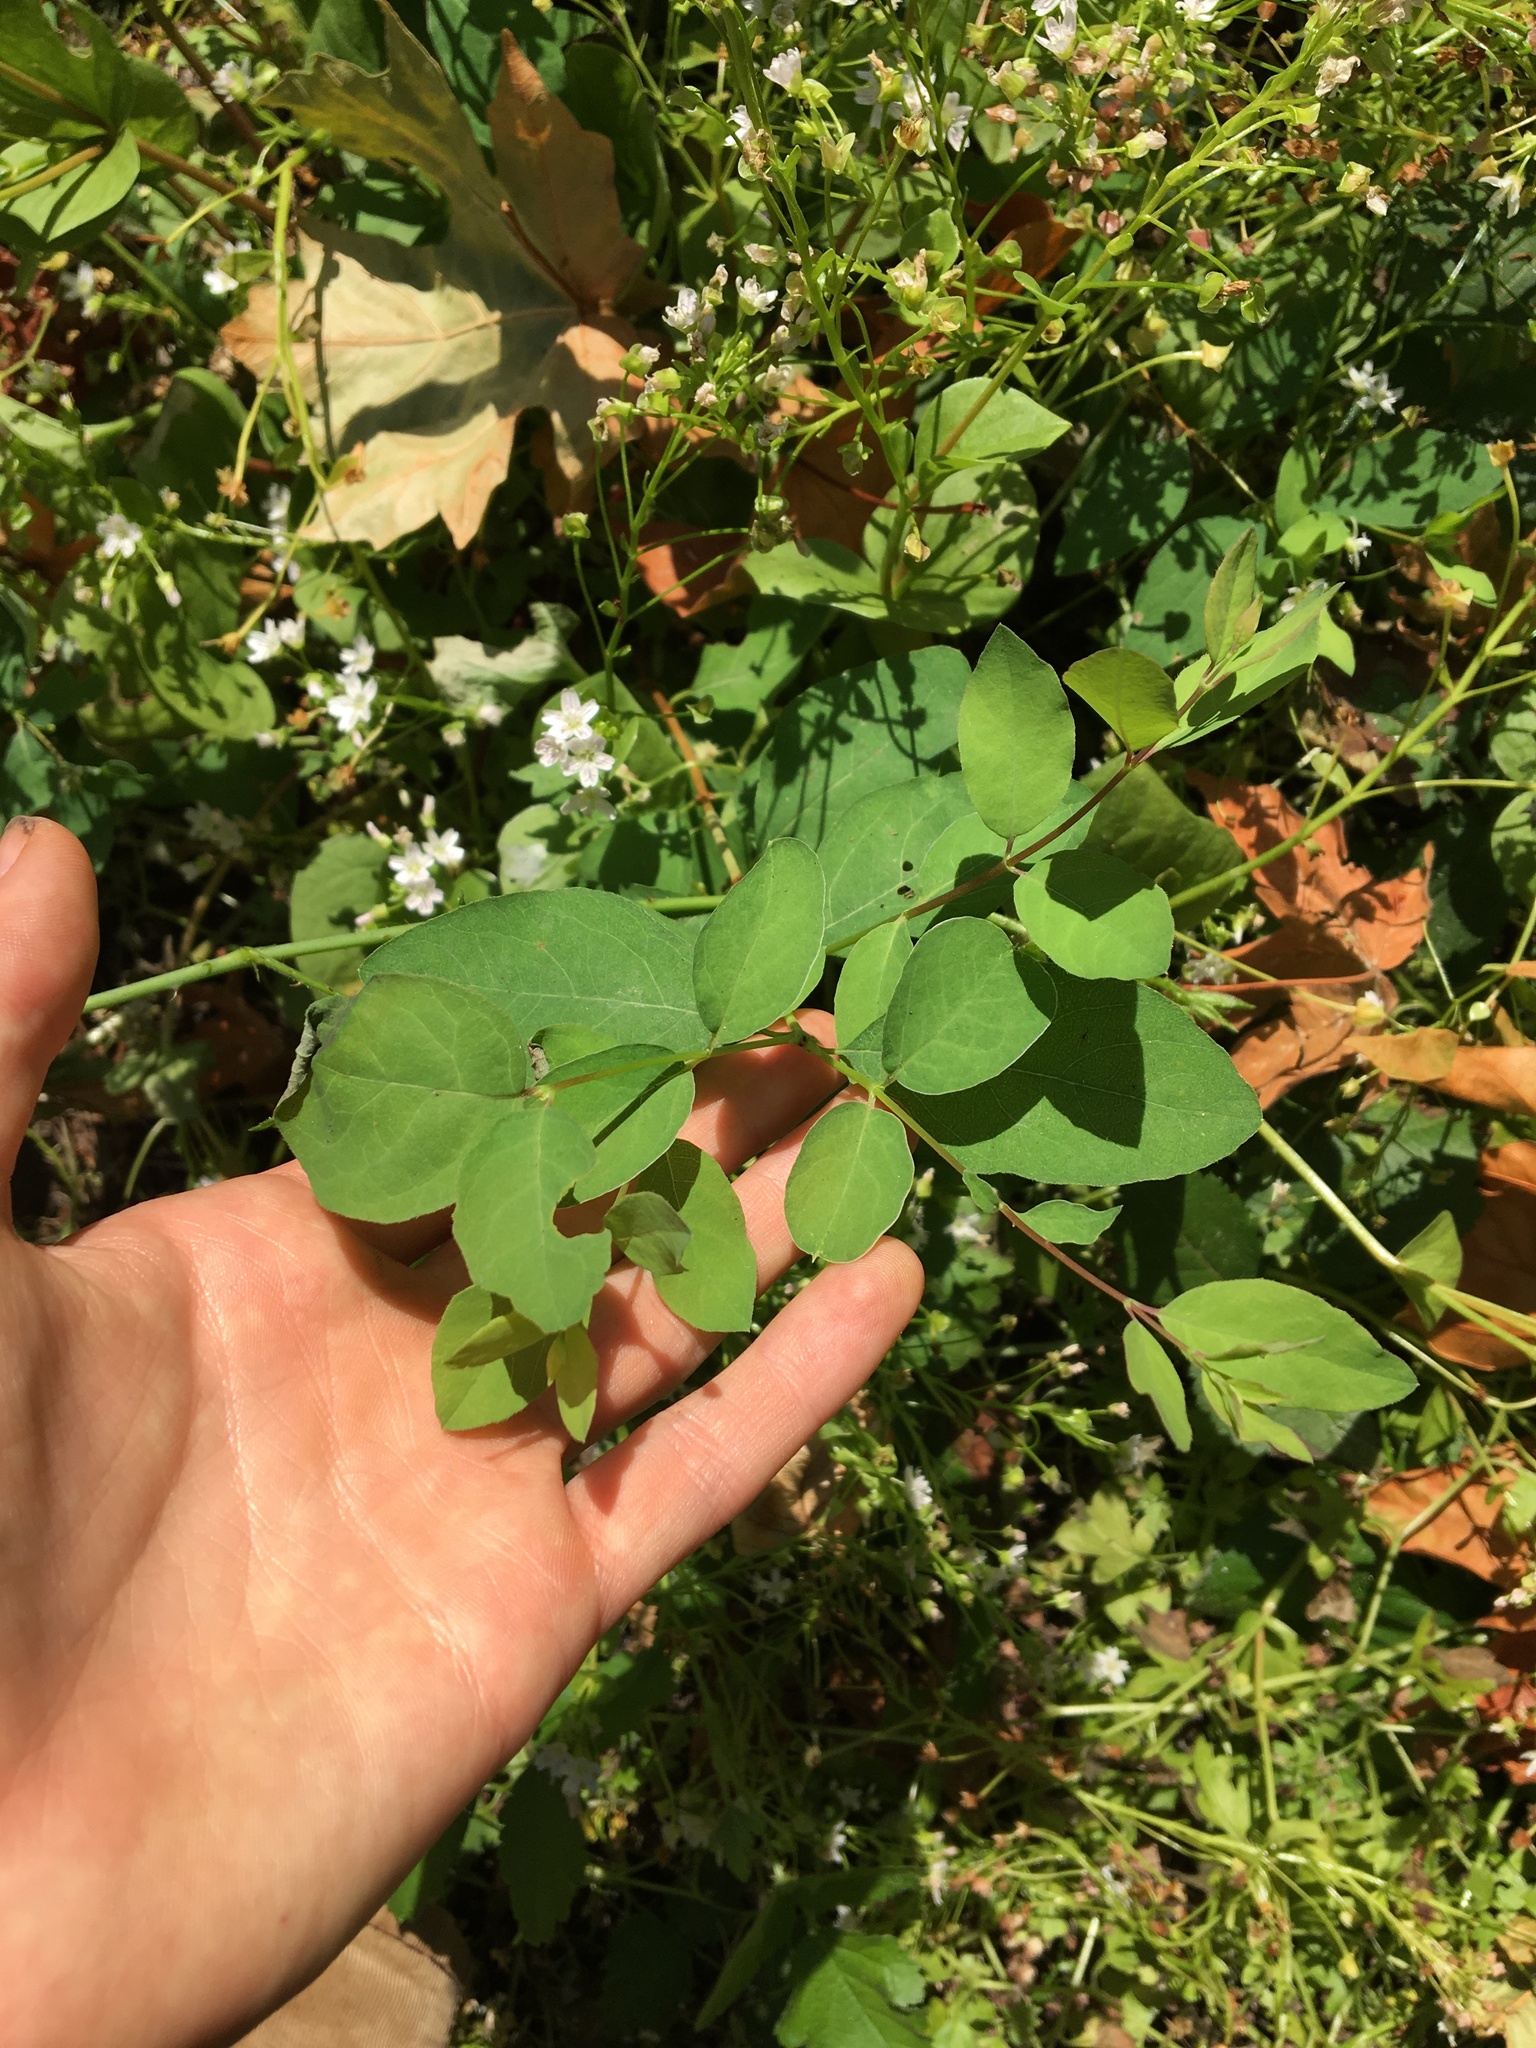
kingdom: Plantae
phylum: Tracheophyta
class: Magnoliopsida
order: Dipsacales
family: Caprifoliaceae
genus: Symphoricarpos
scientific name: Symphoricarpos albus
